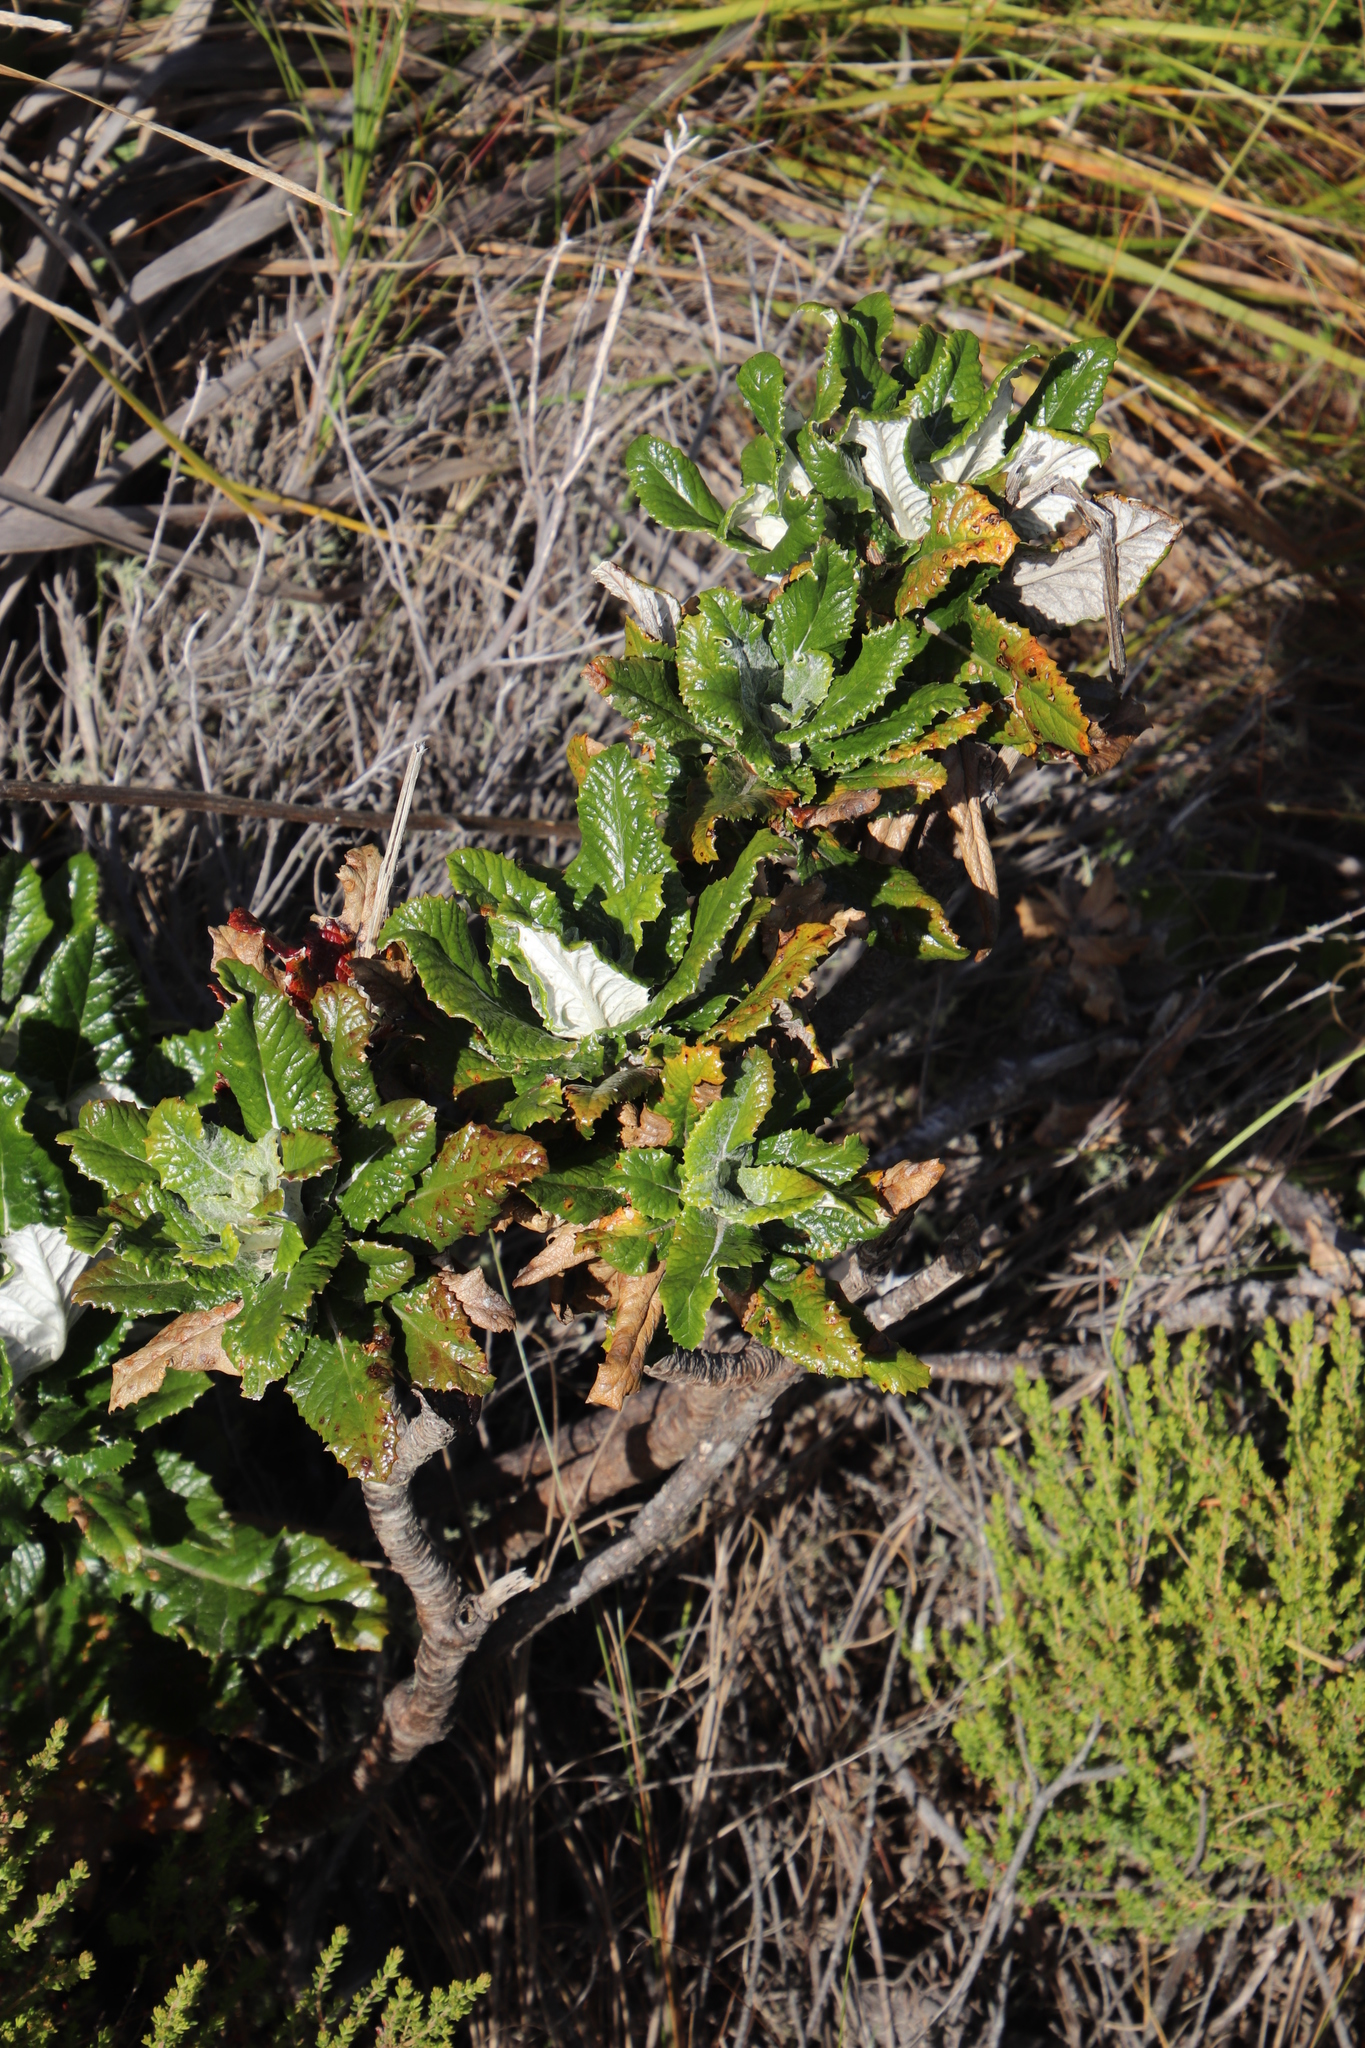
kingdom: Plantae
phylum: Tracheophyta
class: Magnoliopsida
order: Apiales
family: Apiaceae
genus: Hermas
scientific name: Hermas villosa
